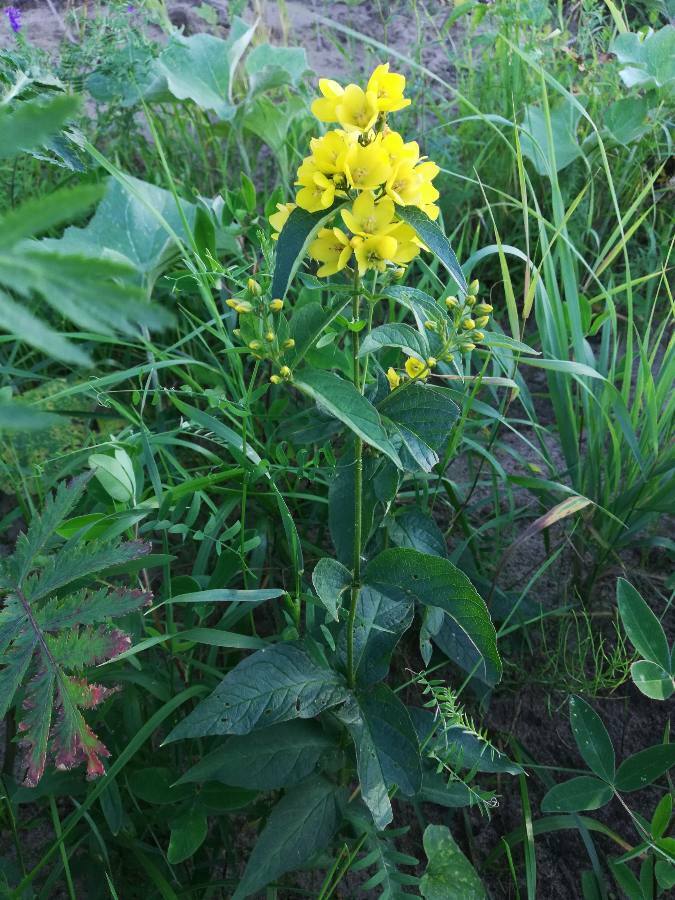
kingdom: Plantae
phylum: Tracheophyta
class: Magnoliopsida
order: Ericales
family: Primulaceae
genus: Lysimachia
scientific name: Lysimachia vulgaris
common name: Yellow loosestrife
